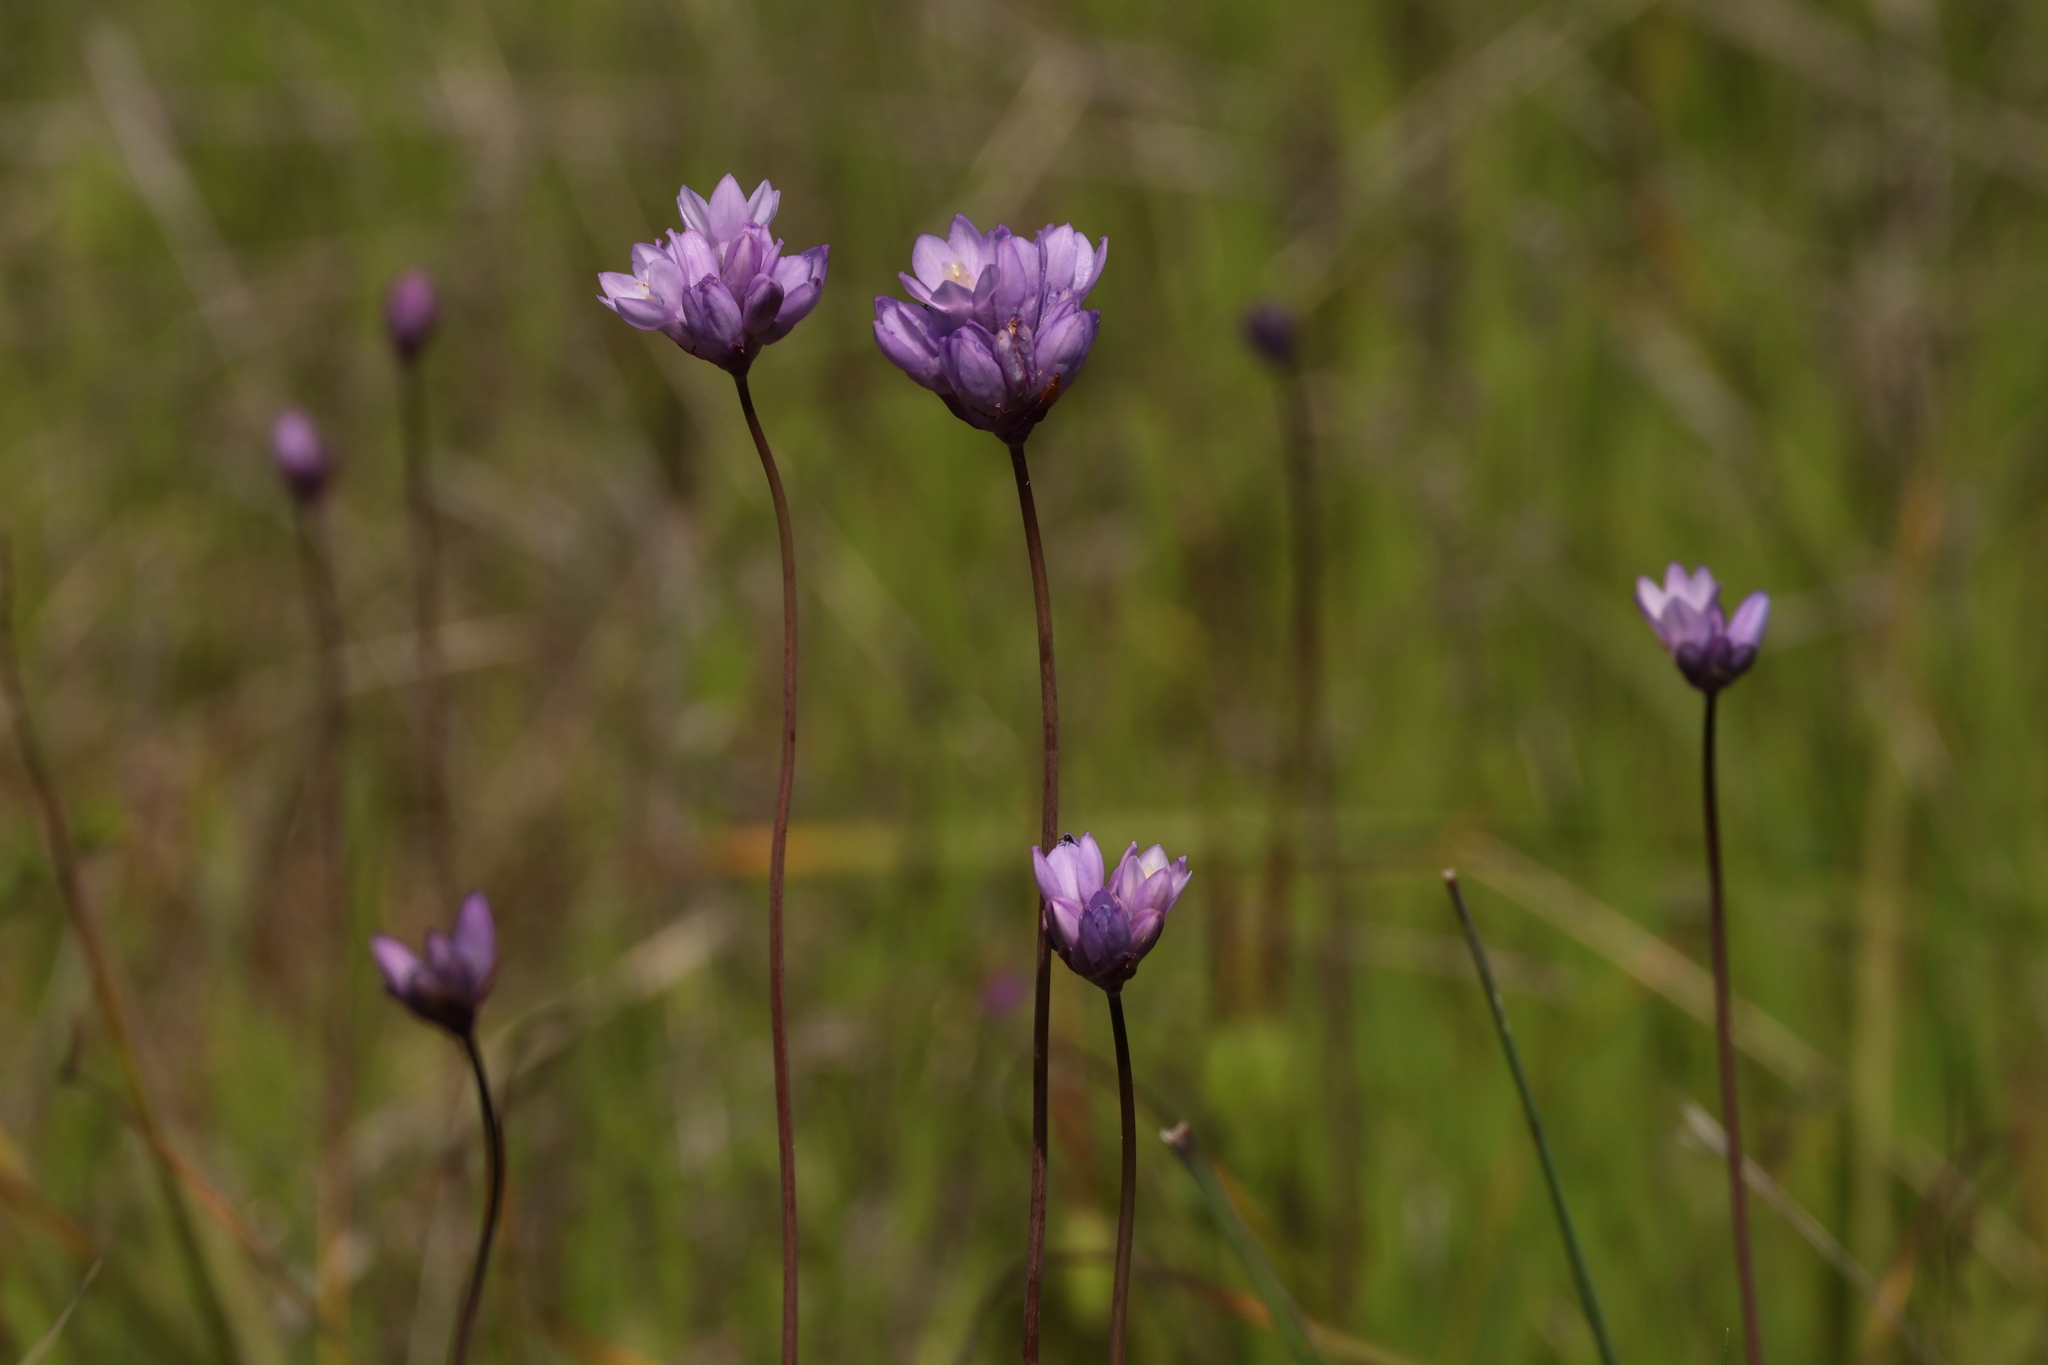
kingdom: Plantae
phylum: Tracheophyta
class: Liliopsida
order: Asparagales
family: Asparagaceae
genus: Dipterostemon
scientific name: Dipterostemon capitatus
